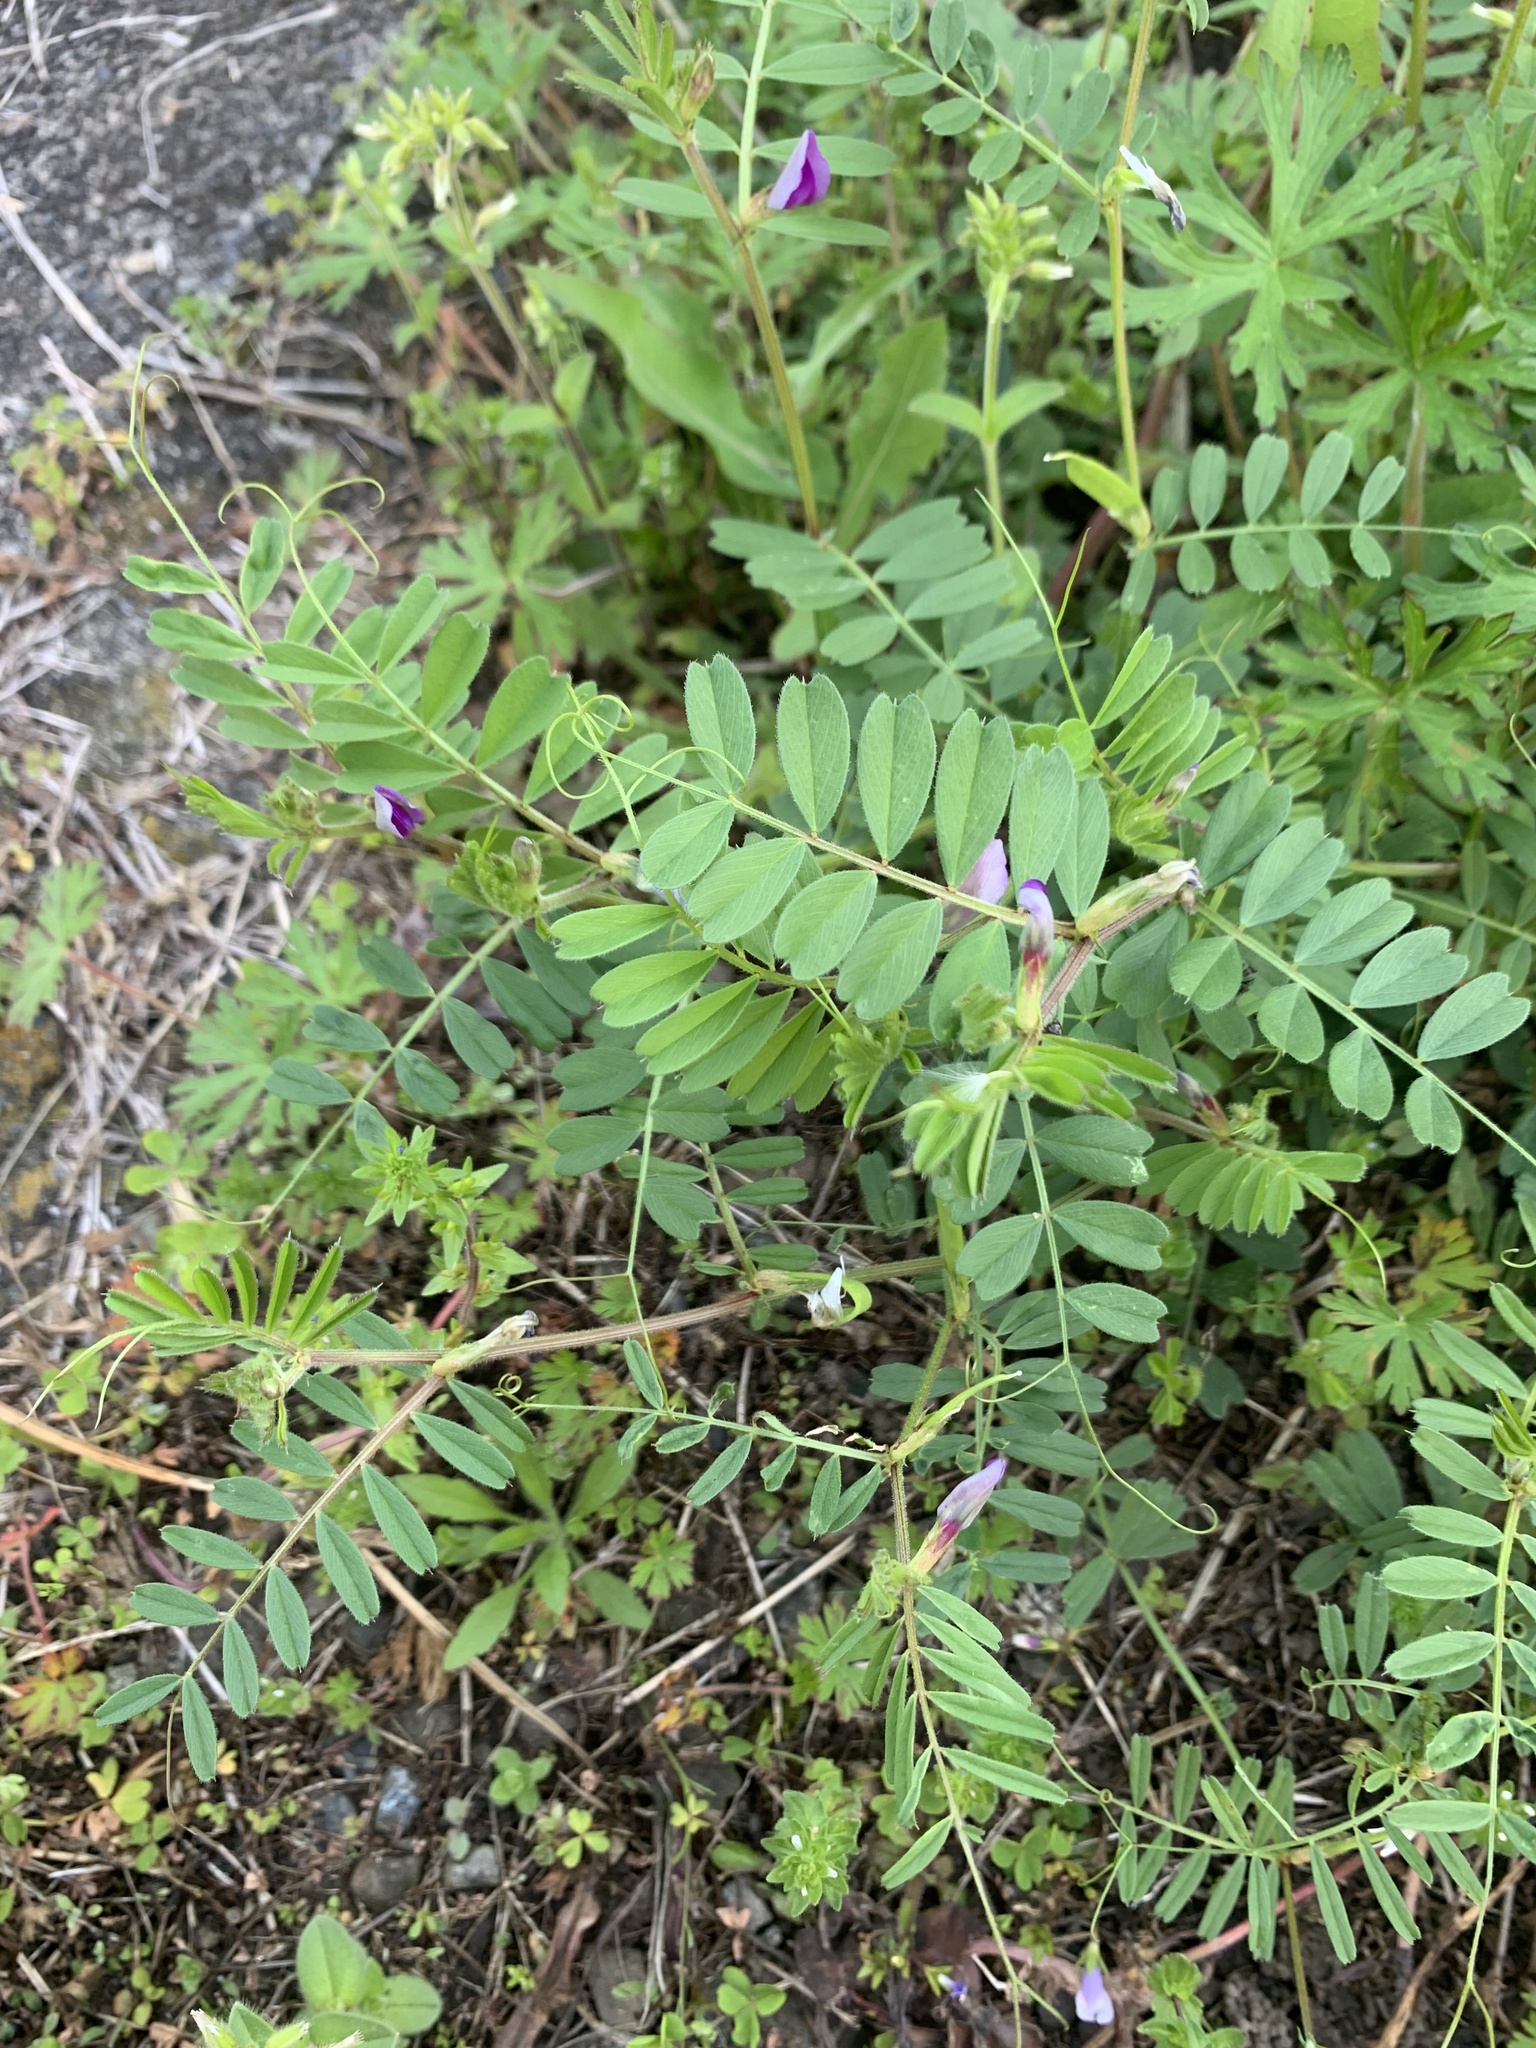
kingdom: Plantae
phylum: Tracheophyta
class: Magnoliopsida
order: Fabales
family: Fabaceae
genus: Vicia
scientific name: Vicia sativa
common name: Garden vetch
